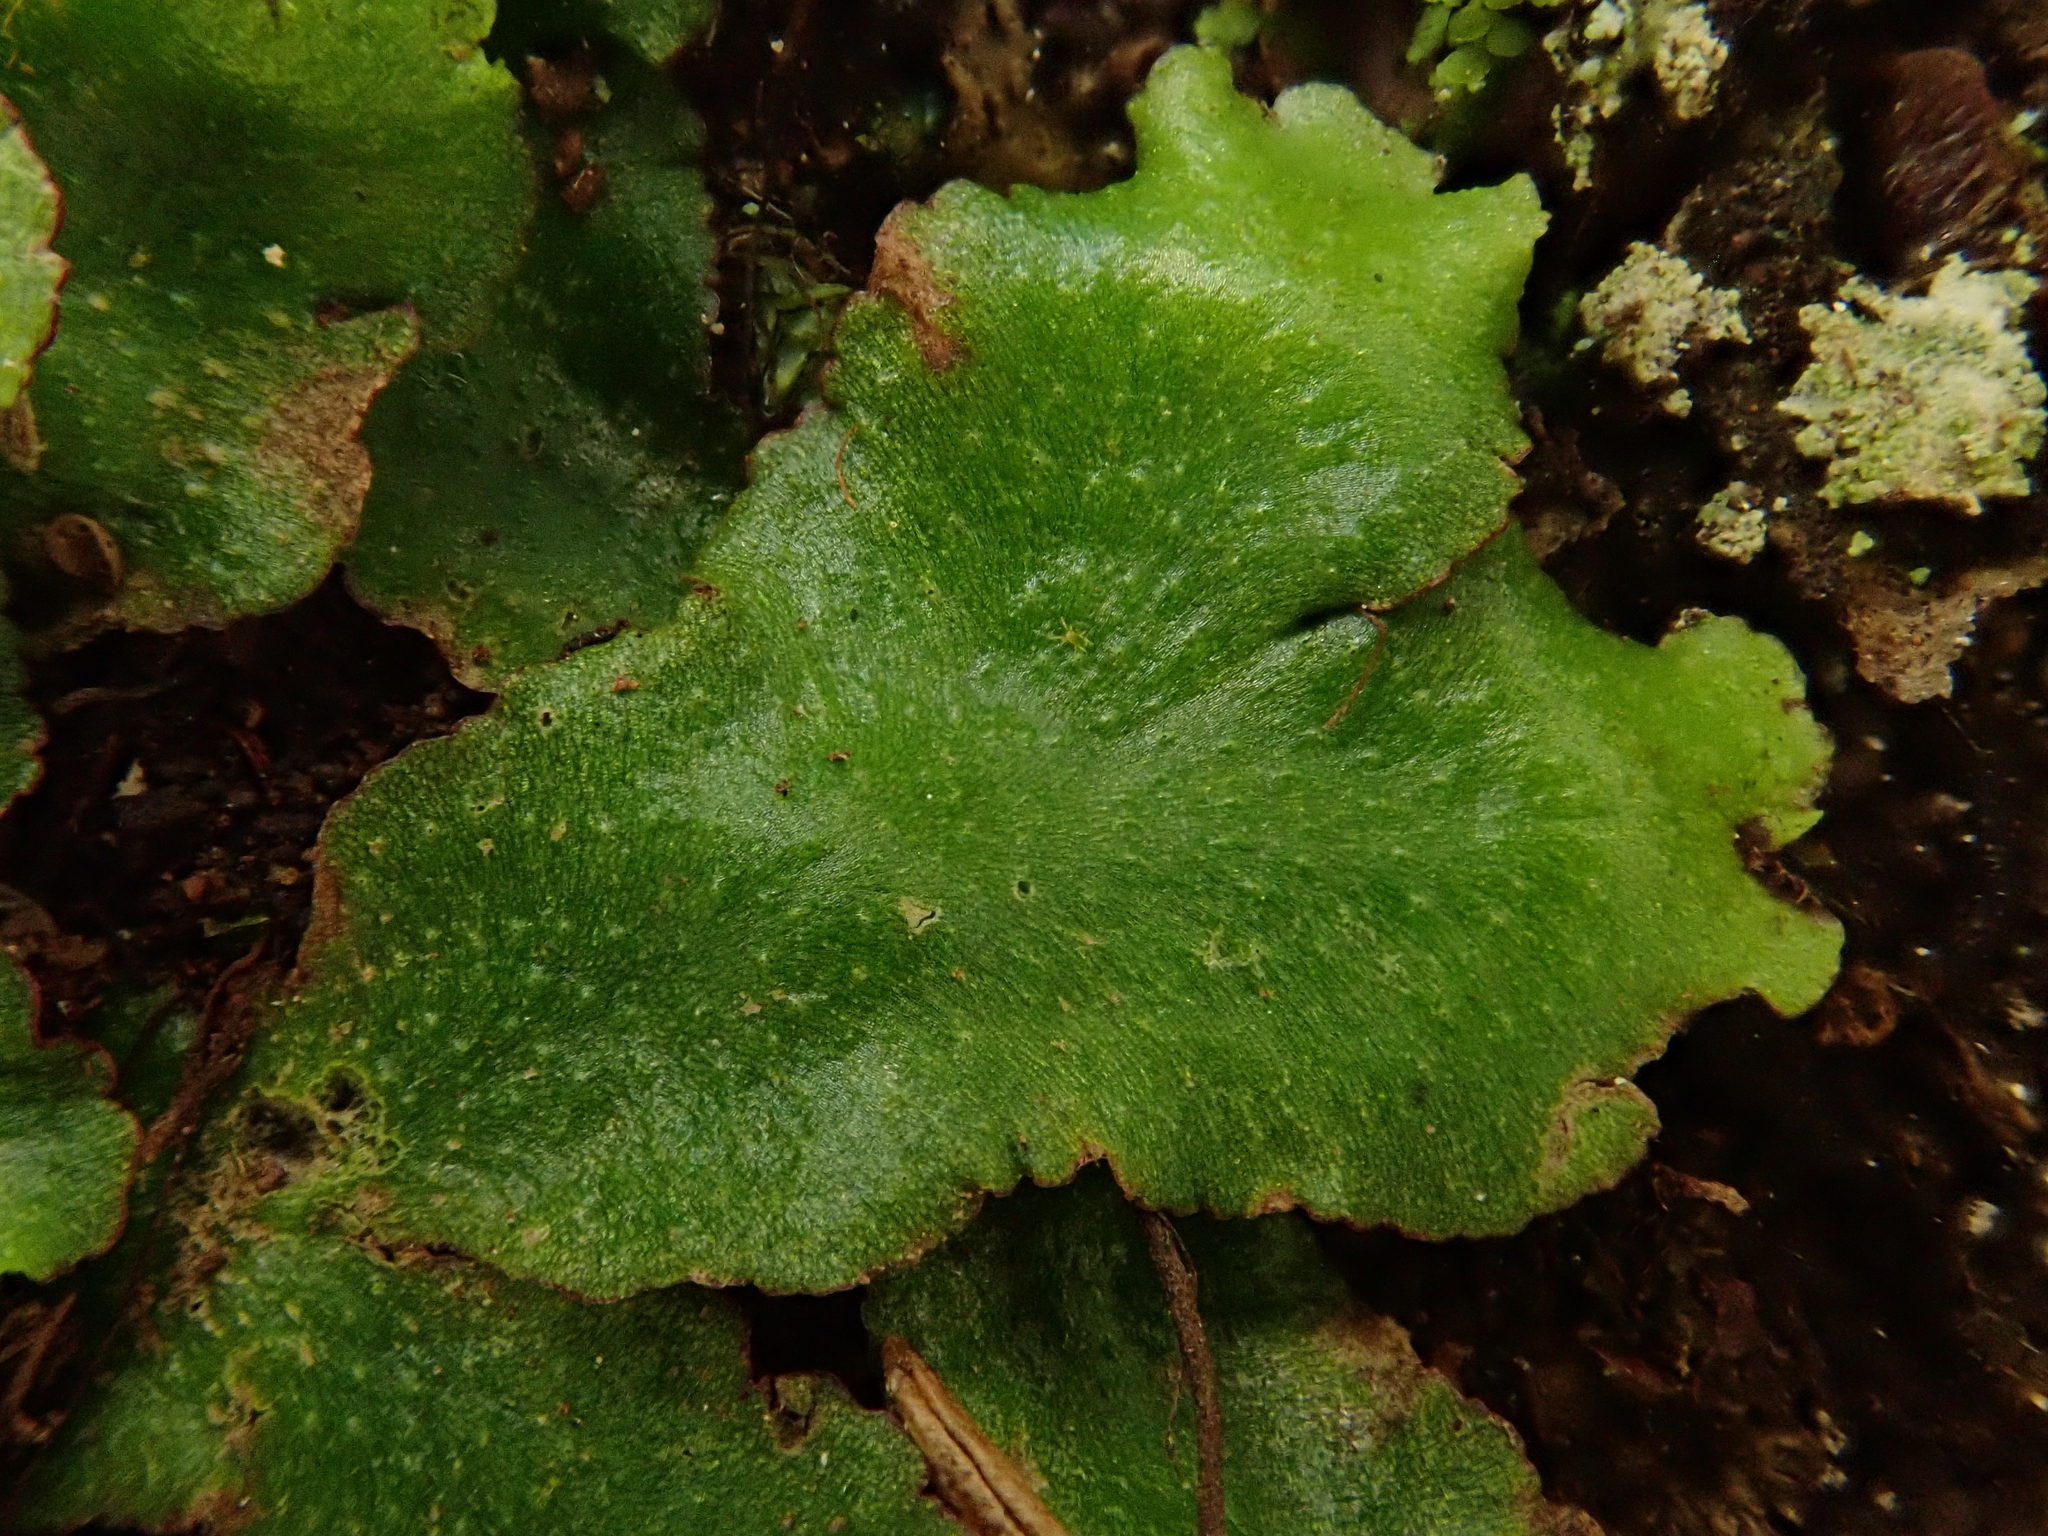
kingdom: Plantae
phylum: Marchantiophyta
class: Marchantiopsida
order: Marchantiales
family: Aytoniaceae
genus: Reboulia
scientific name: Reboulia hemisphaerica
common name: Purple-margined liverwort
